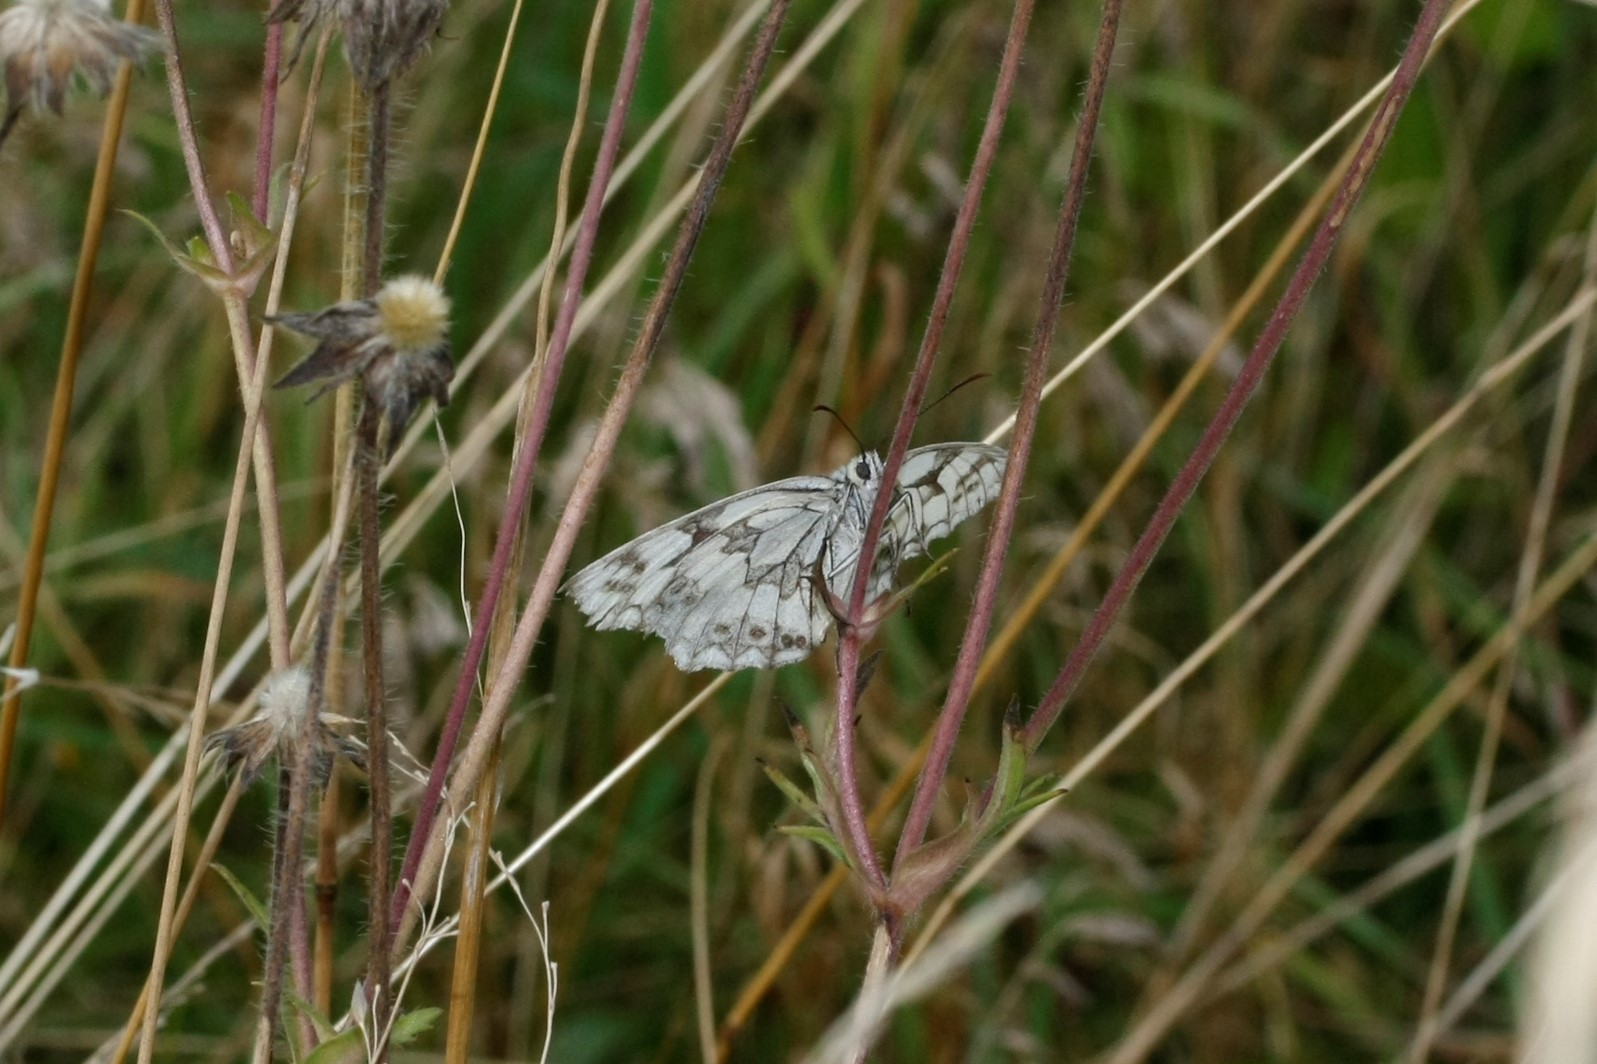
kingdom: Animalia
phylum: Arthropoda
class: Insecta
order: Lepidoptera
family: Nymphalidae
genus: Melanargia
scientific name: Melanargia galathea
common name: Marbled white
